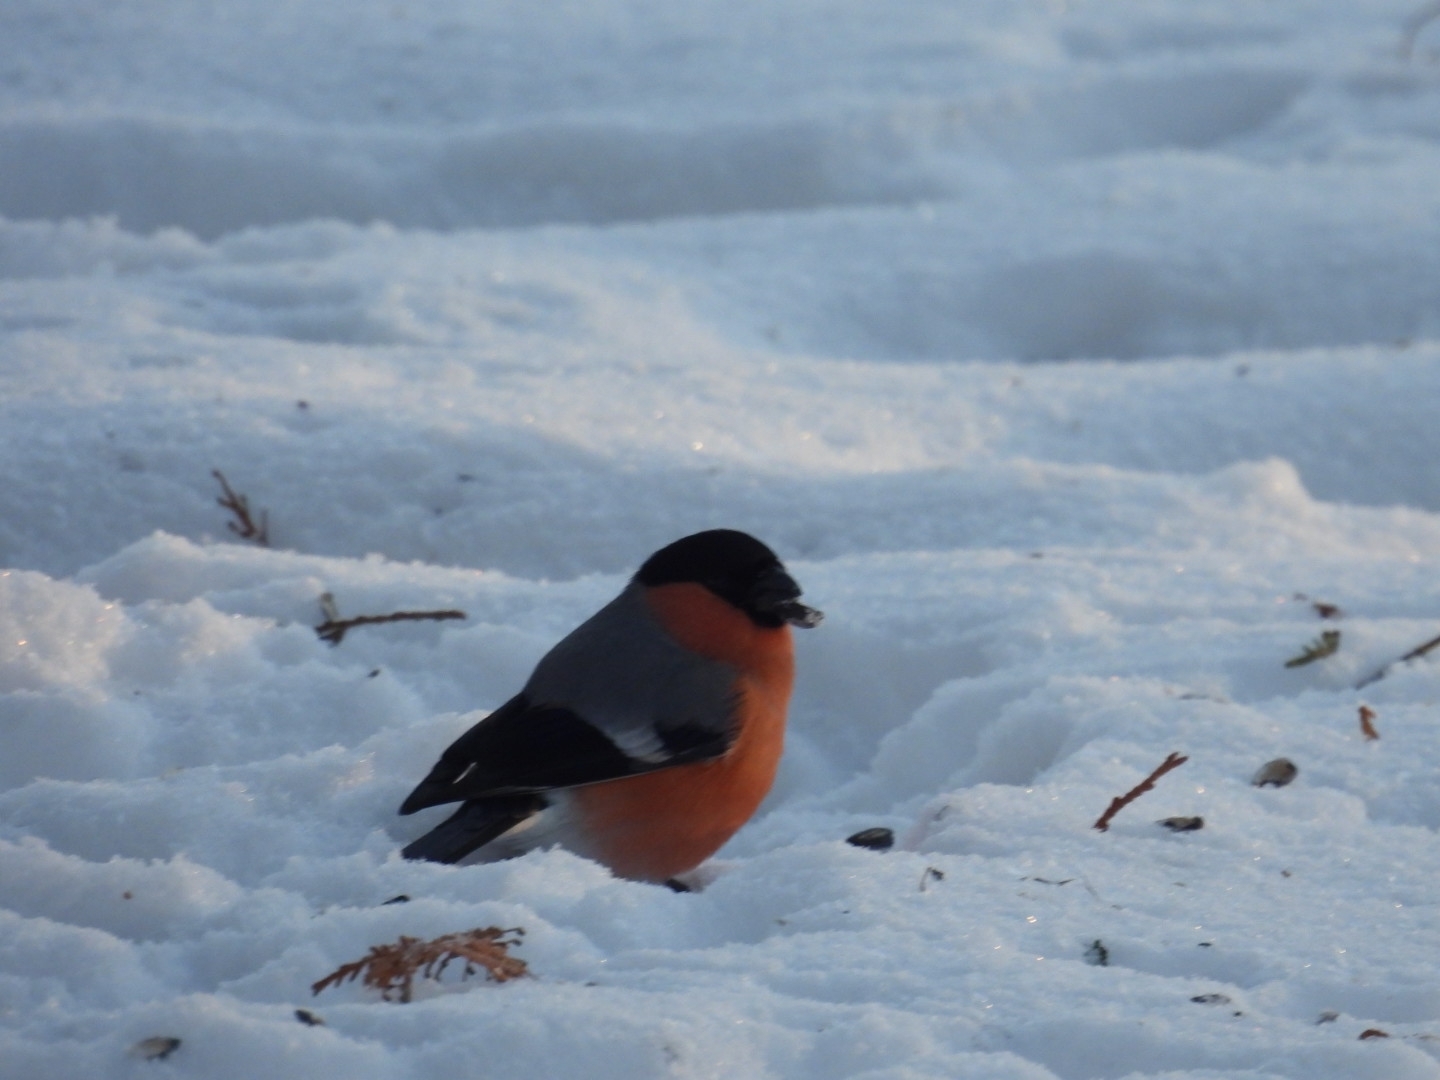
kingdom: Animalia
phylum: Chordata
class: Aves
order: Passeriformes
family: Fringillidae
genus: Pyrrhula
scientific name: Pyrrhula pyrrhula
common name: Eurasian bullfinch
